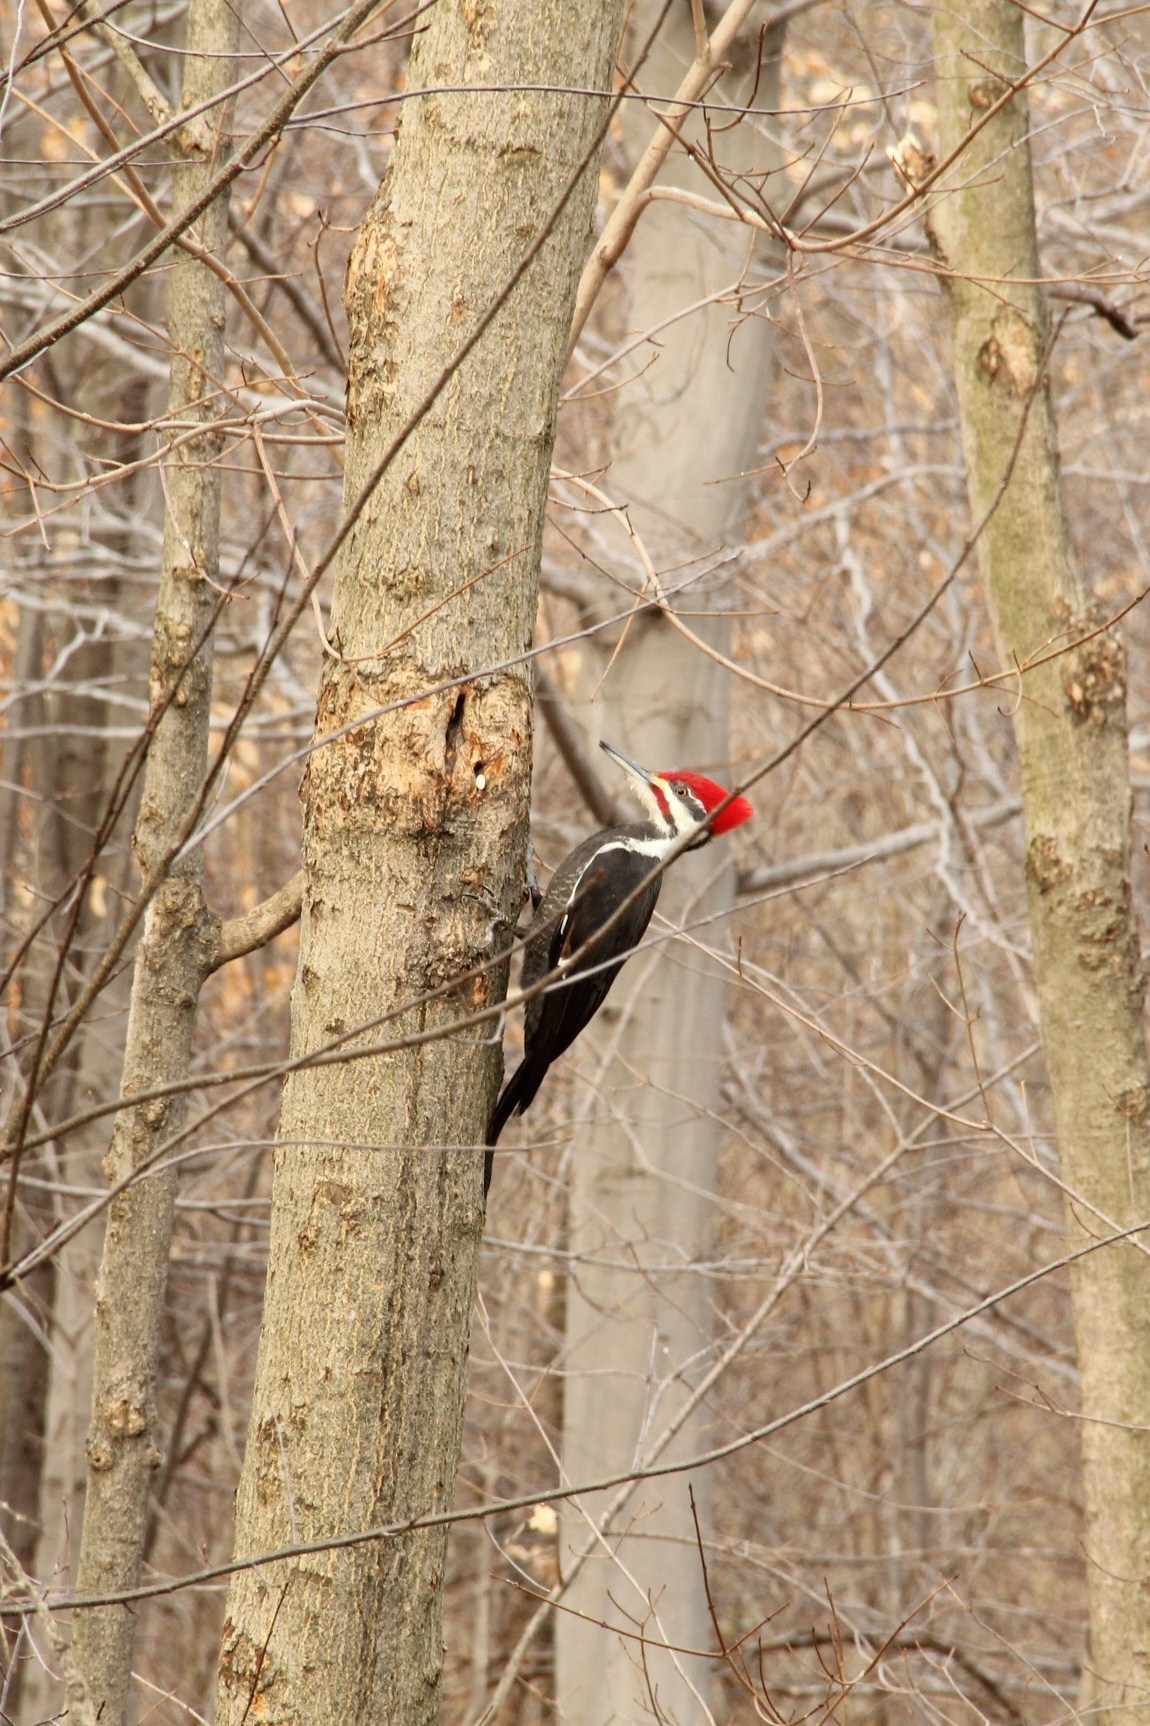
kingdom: Animalia
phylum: Chordata
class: Aves
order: Piciformes
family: Picidae
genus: Dryocopus
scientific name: Dryocopus pileatus
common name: Pileated woodpecker
